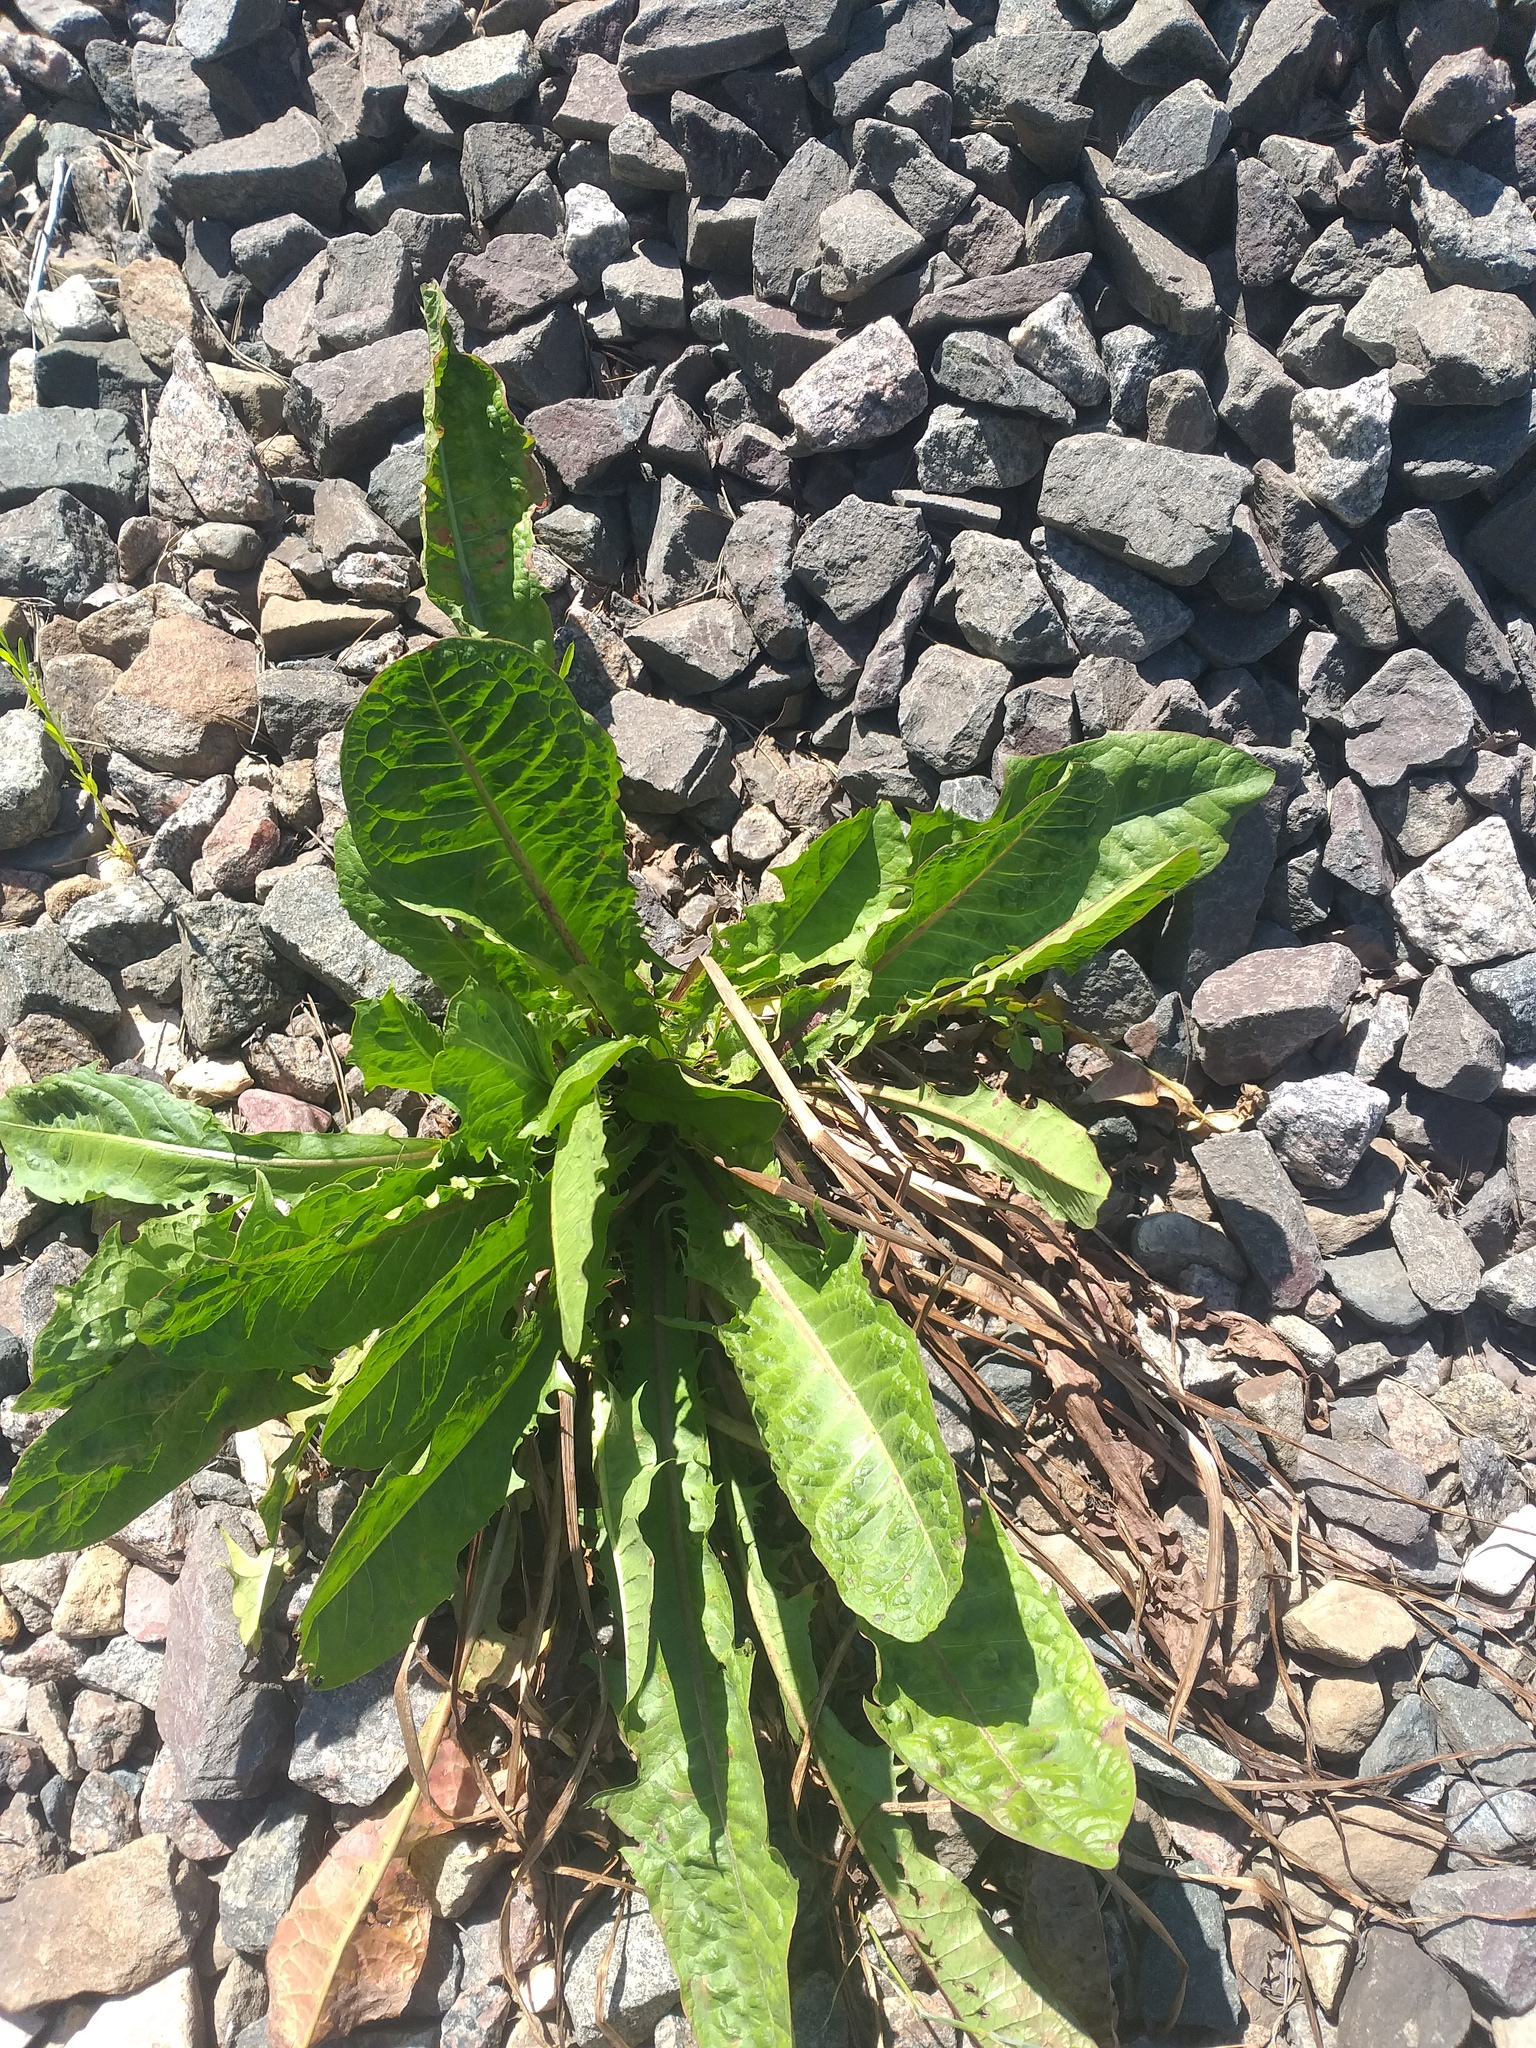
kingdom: Plantae
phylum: Tracheophyta
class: Magnoliopsida
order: Asterales
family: Asteraceae
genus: Taraxacum
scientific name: Taraxacum officinale
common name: Common dandelion
